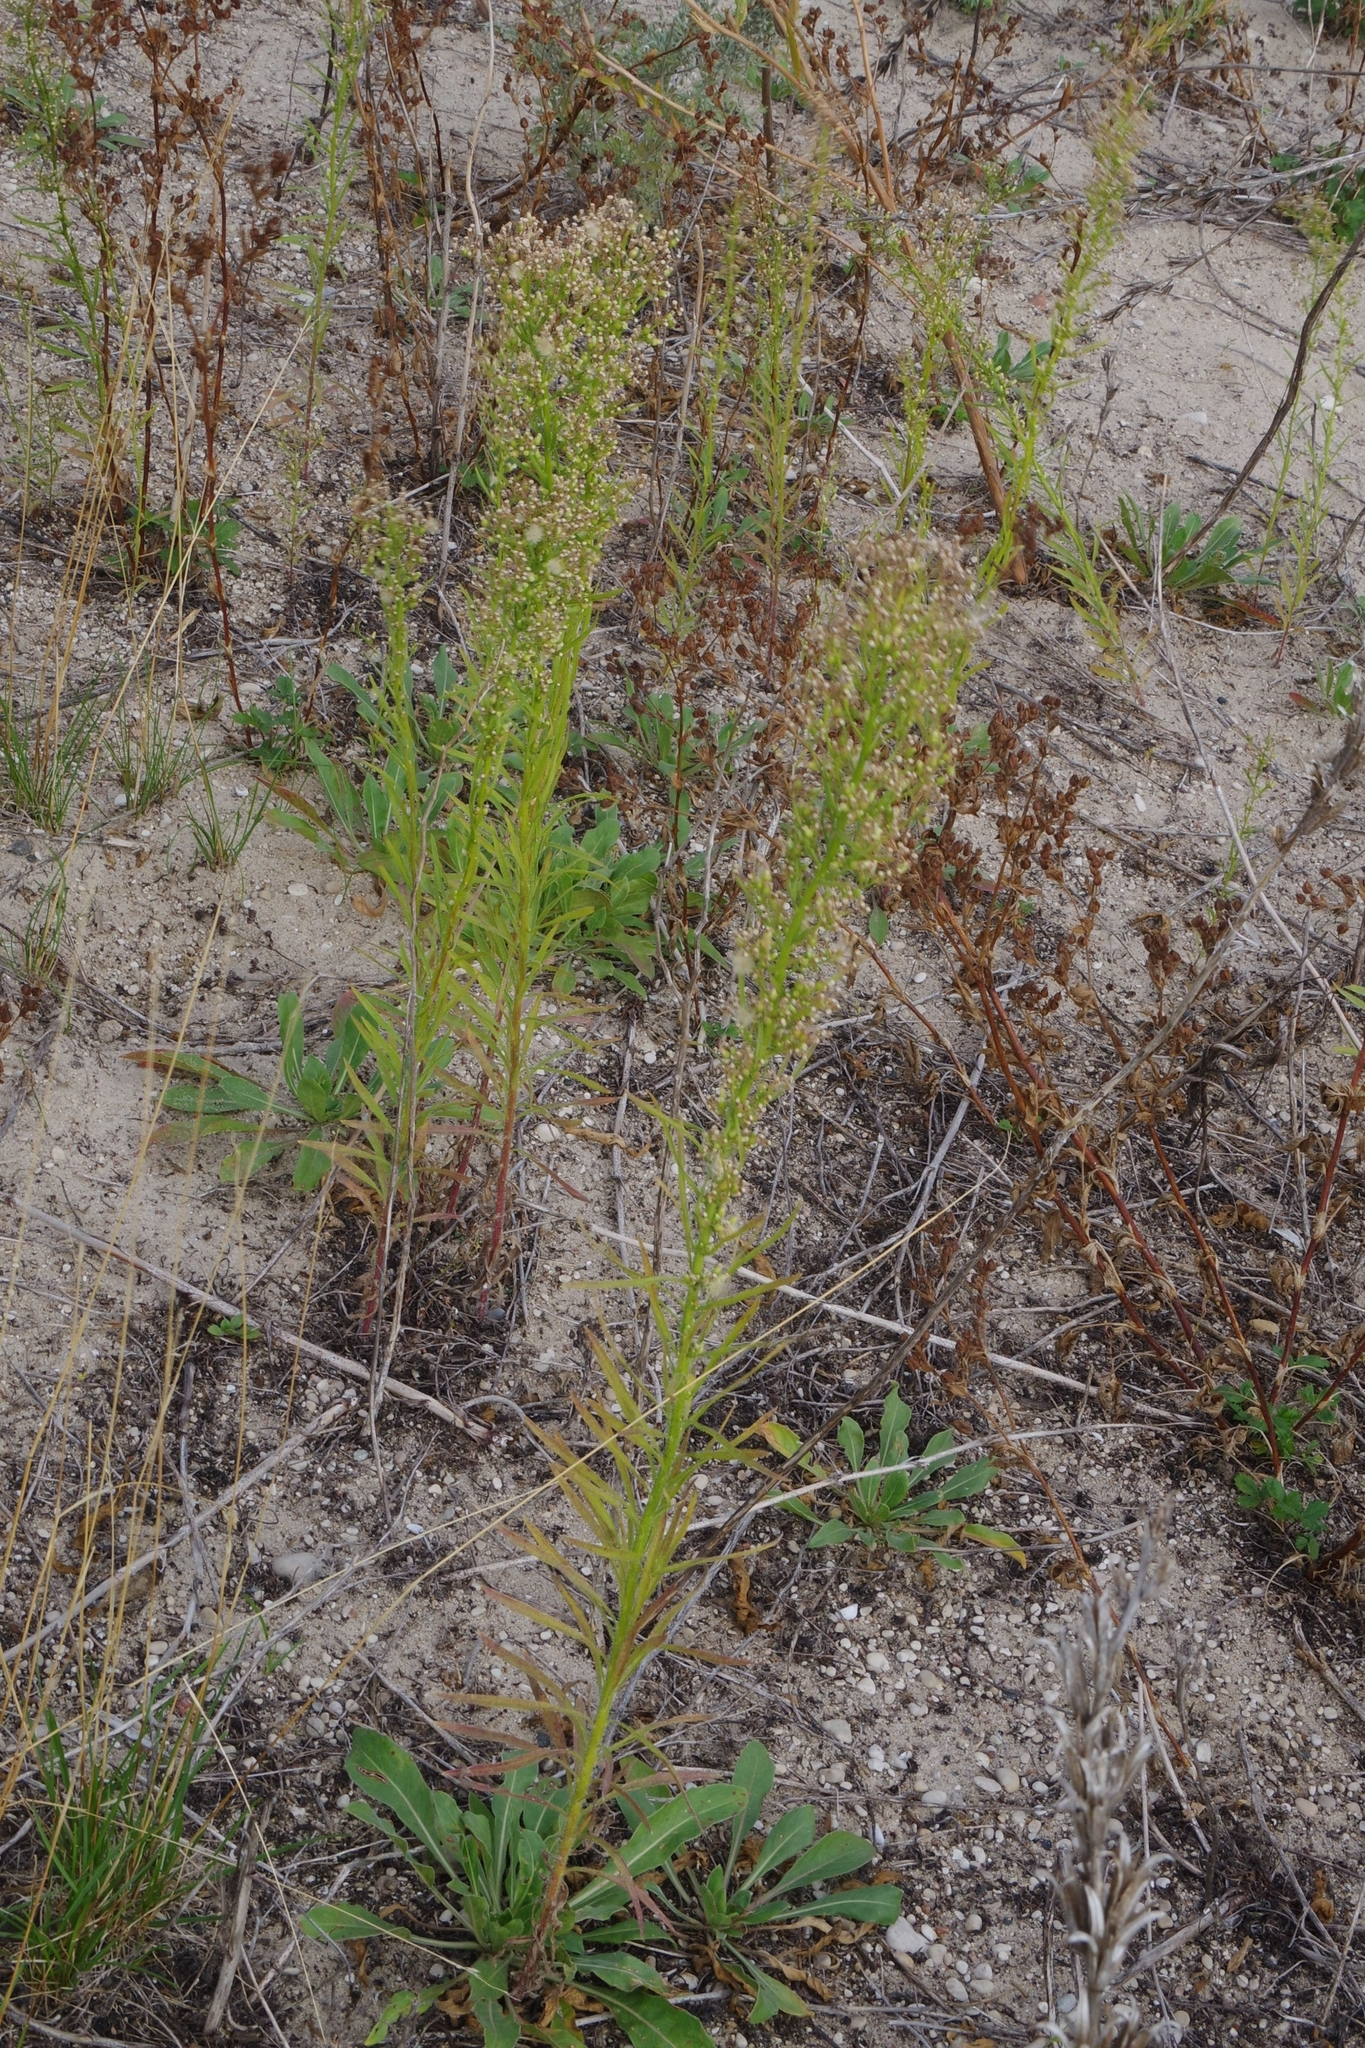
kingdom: Plantae
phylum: Tracheophyta
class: Magnoliopsida
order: Asterales
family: Asteraceae
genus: Erigeron
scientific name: Erigeron canadensis
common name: Canadian fleabane
